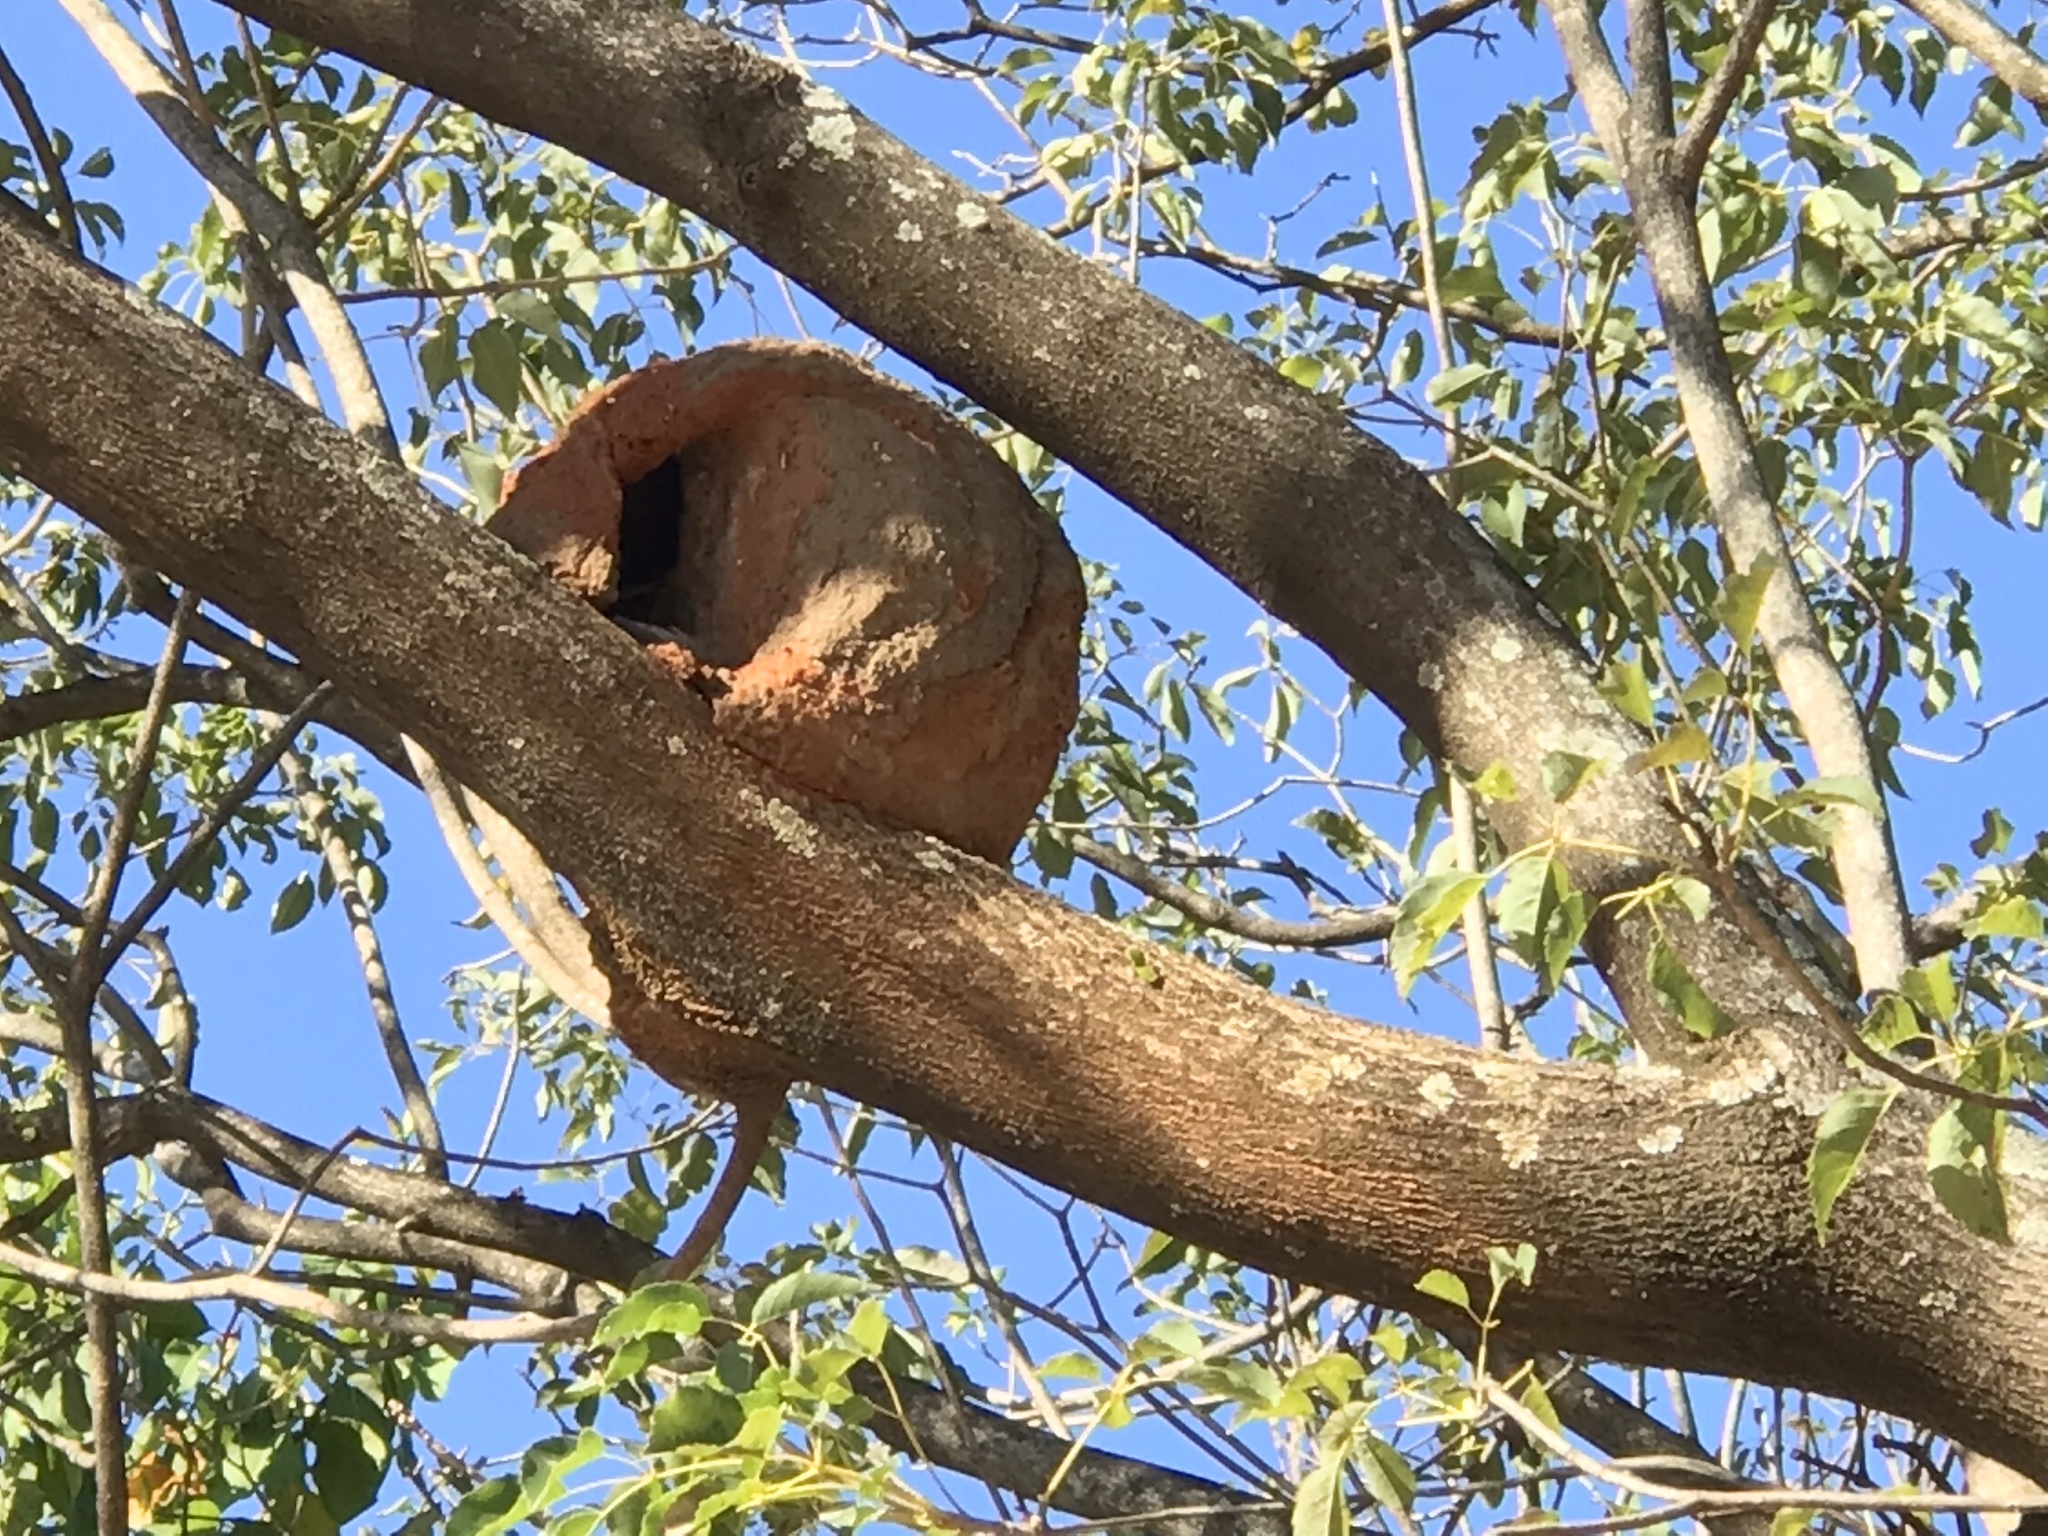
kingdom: Animalia
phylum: Chordata
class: Aves
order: Passeriformes
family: Furnariidae
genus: Furnarius
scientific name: Furnarius rufus
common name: Rufous hornero
